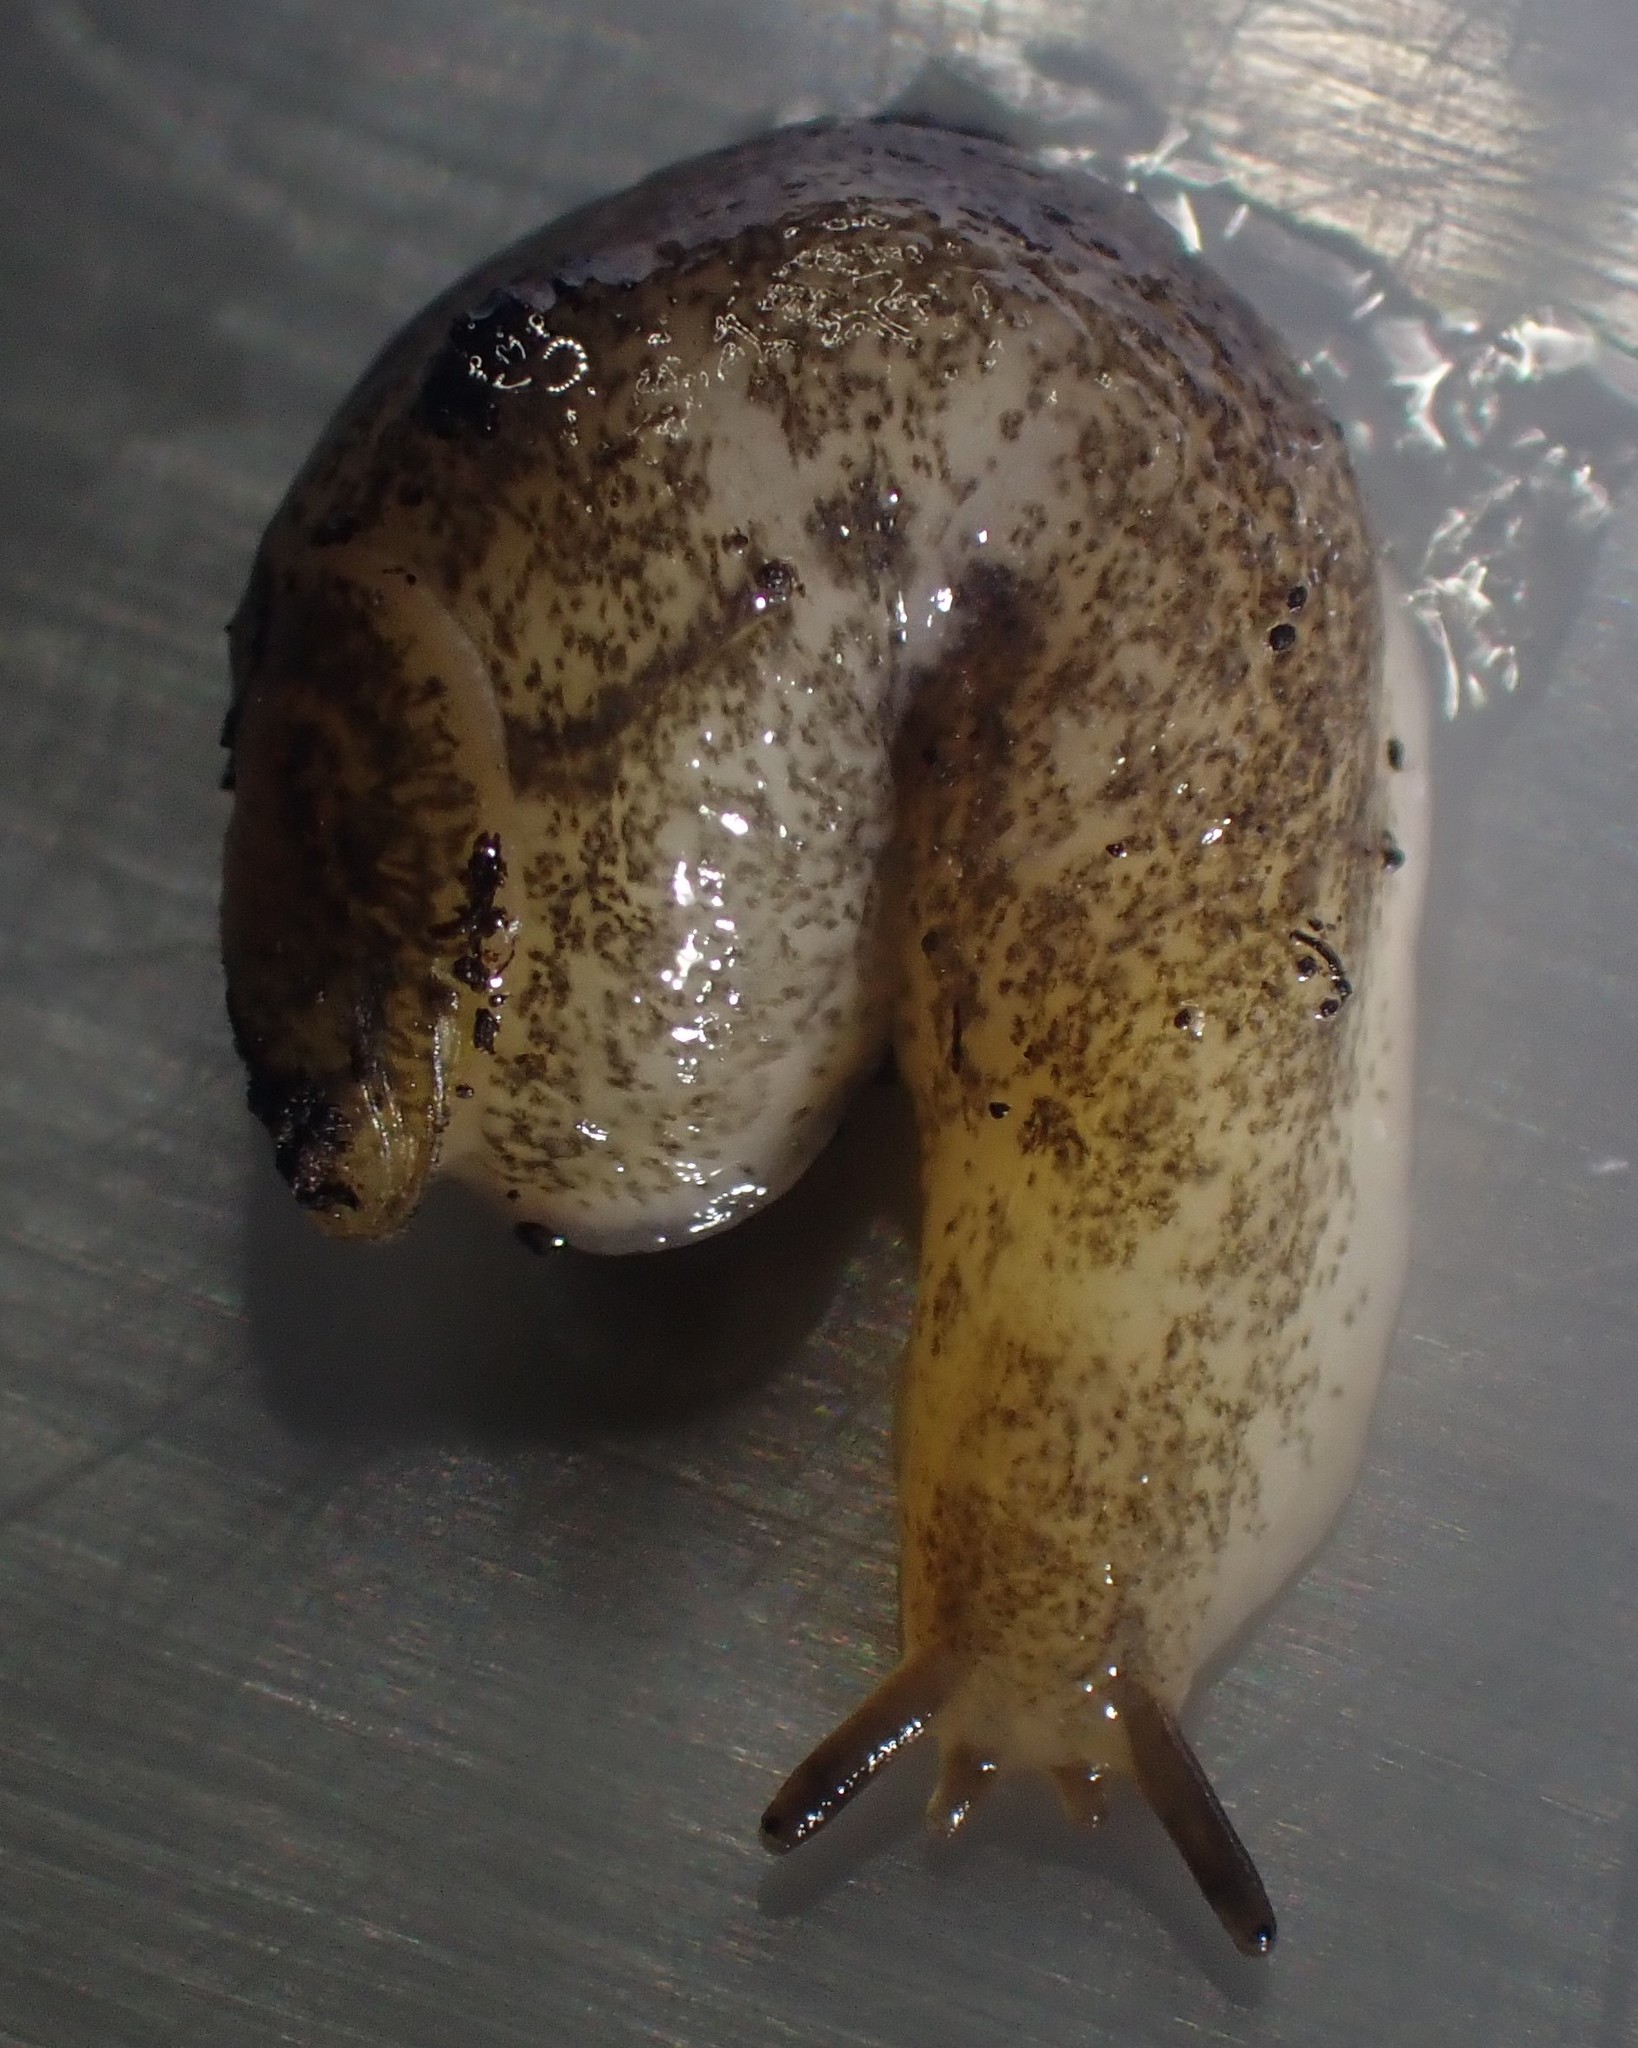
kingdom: Animalia
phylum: Mollusca
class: Gastropoda
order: Stylommatophora
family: Testacellidae
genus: Testacella
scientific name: Testacella maugei
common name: Mauge's slug
